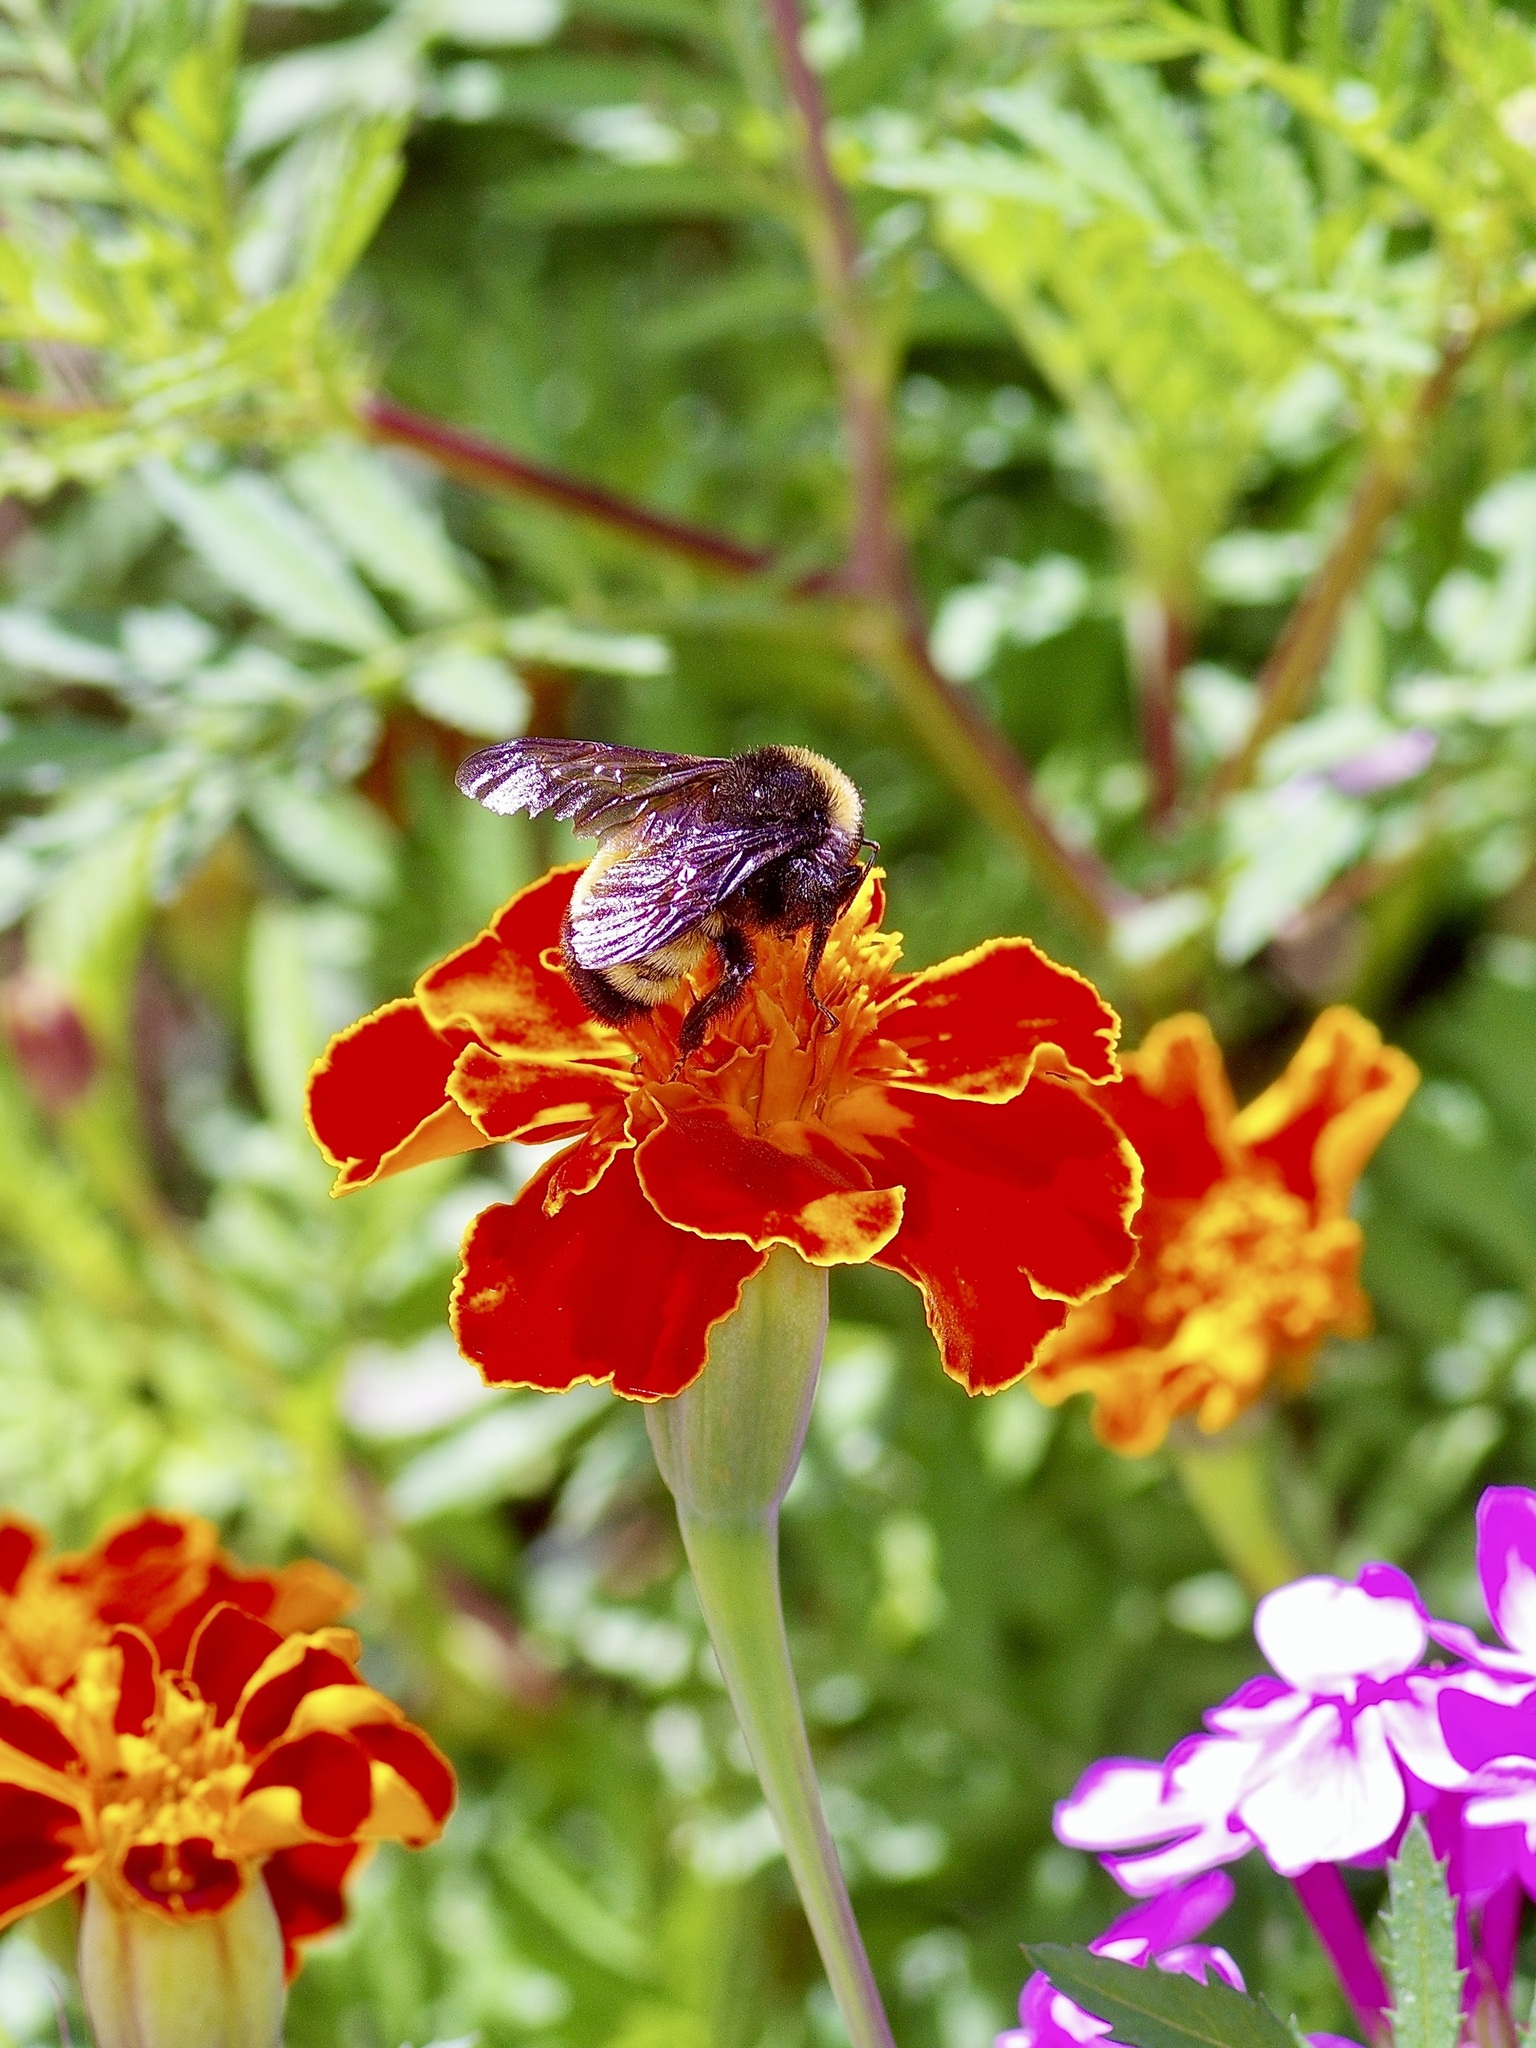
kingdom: Animalia
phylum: Arthropoda
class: Insecta
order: Hymenoptera
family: Apidae
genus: Bombus
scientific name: Bombus pensylvanicus
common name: Bumble bee
